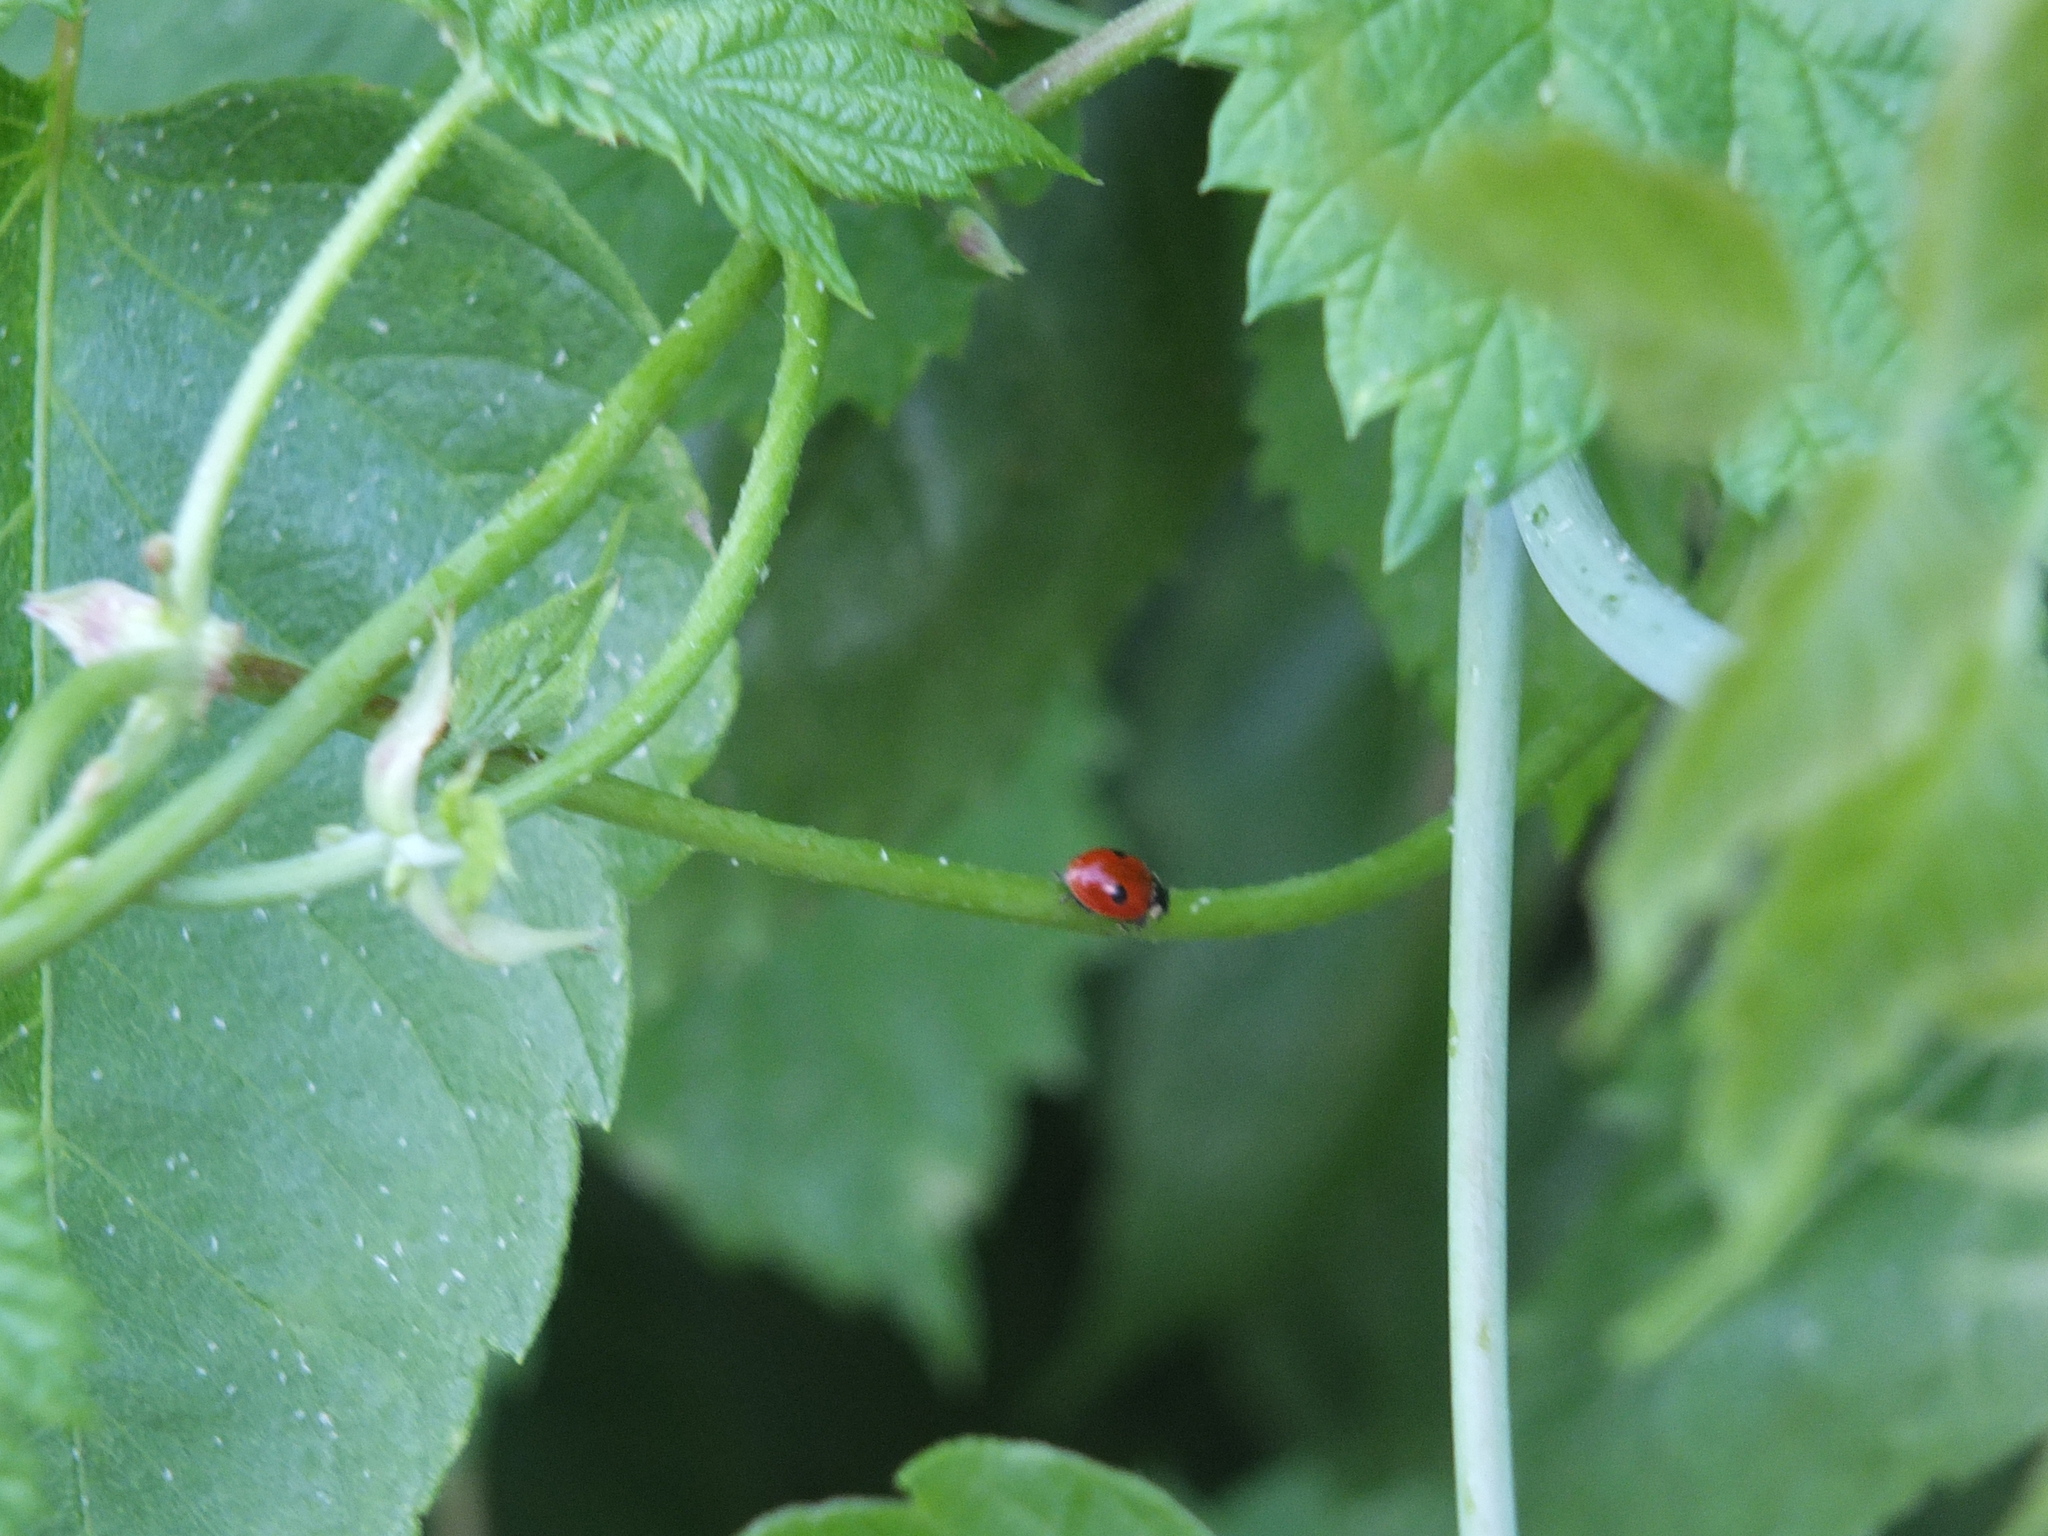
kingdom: Animalia
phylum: Arthropoda
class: Insecta
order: Coleoptera
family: Coccinellidae
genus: Adalia
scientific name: Adalia bipunctata
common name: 2-spot ladybird
